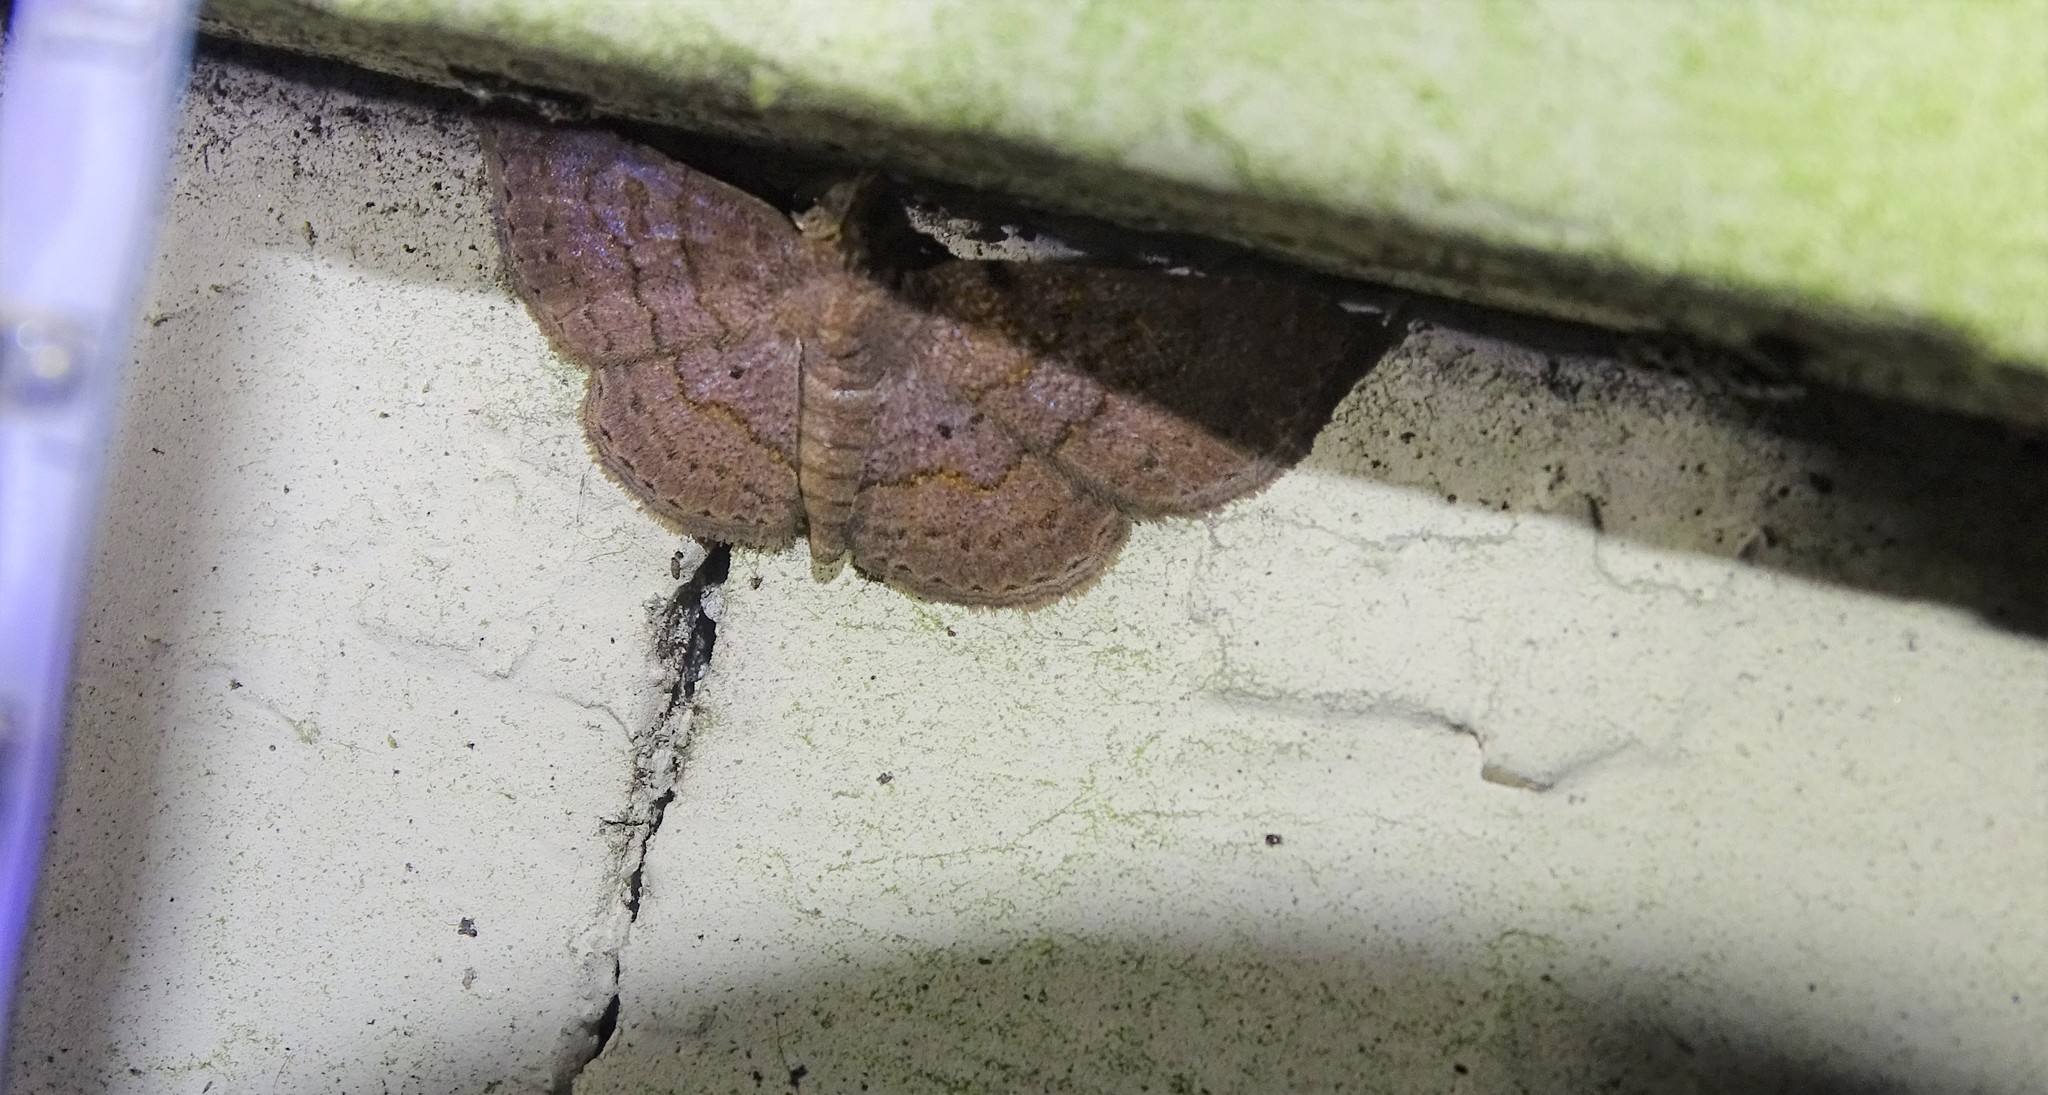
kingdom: Animalia
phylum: Arthropoda
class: Insecta
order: Lepidoptera
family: Erebidae
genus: Antiblemma
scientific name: Antiblemma perva
